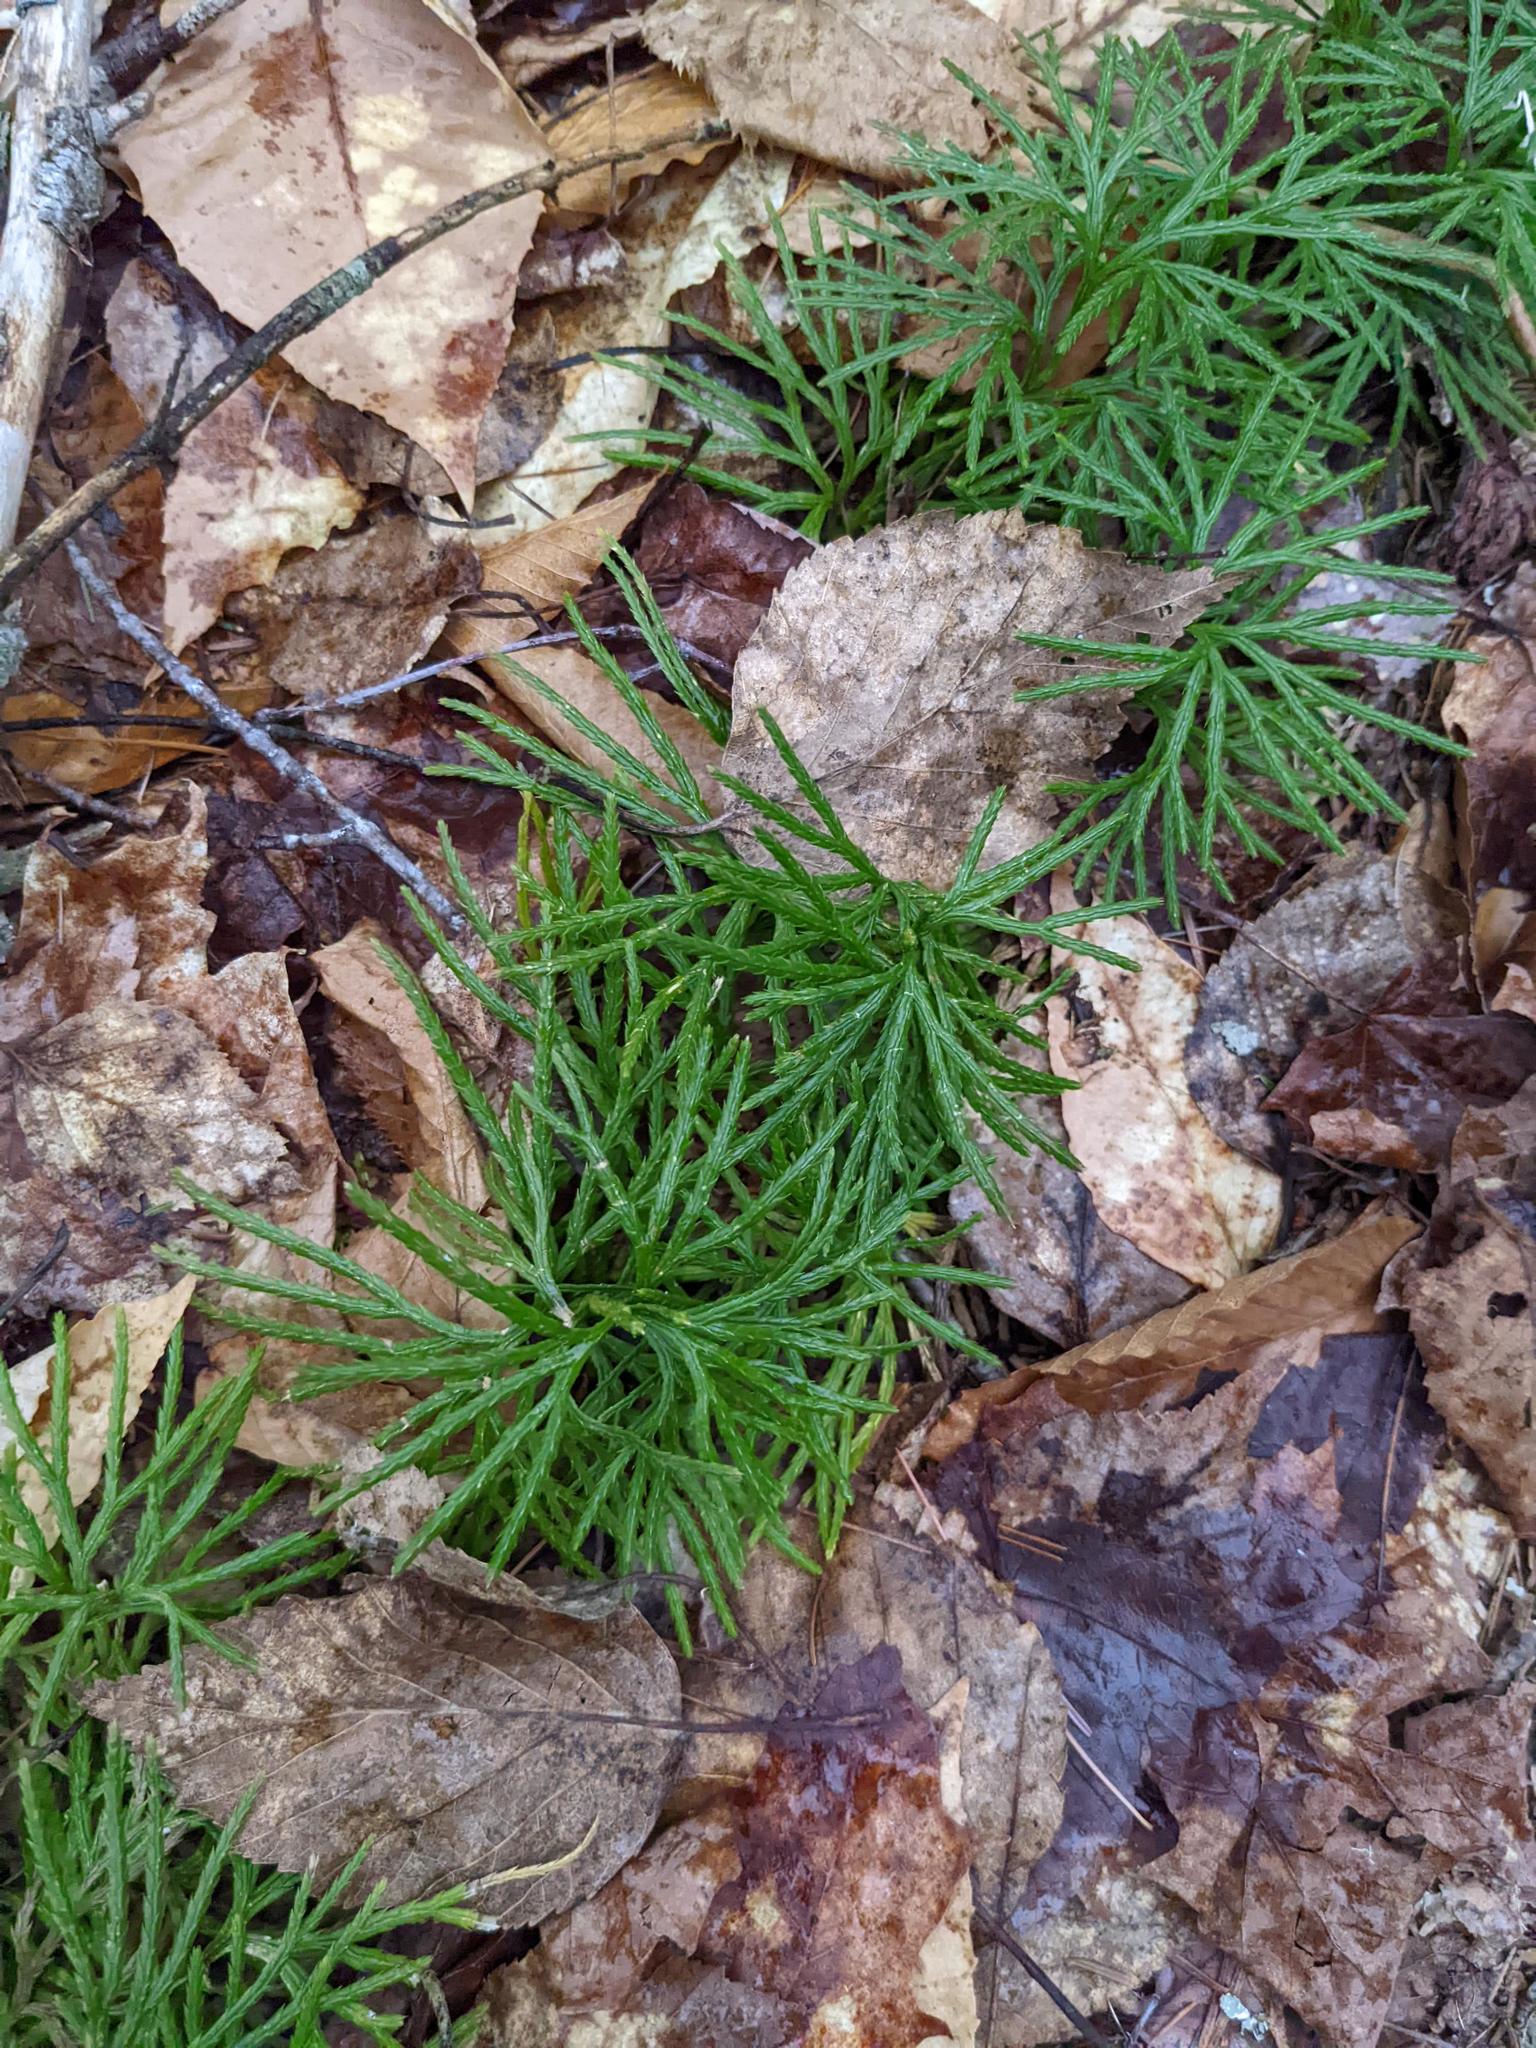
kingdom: Plantae
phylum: Tracheophyta
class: Lycopodiopsida
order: Lycopodiales
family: Lycopodiaceae
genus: Diphasiastrum
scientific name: Diphasiastrum digitatum
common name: Southern running-pine
